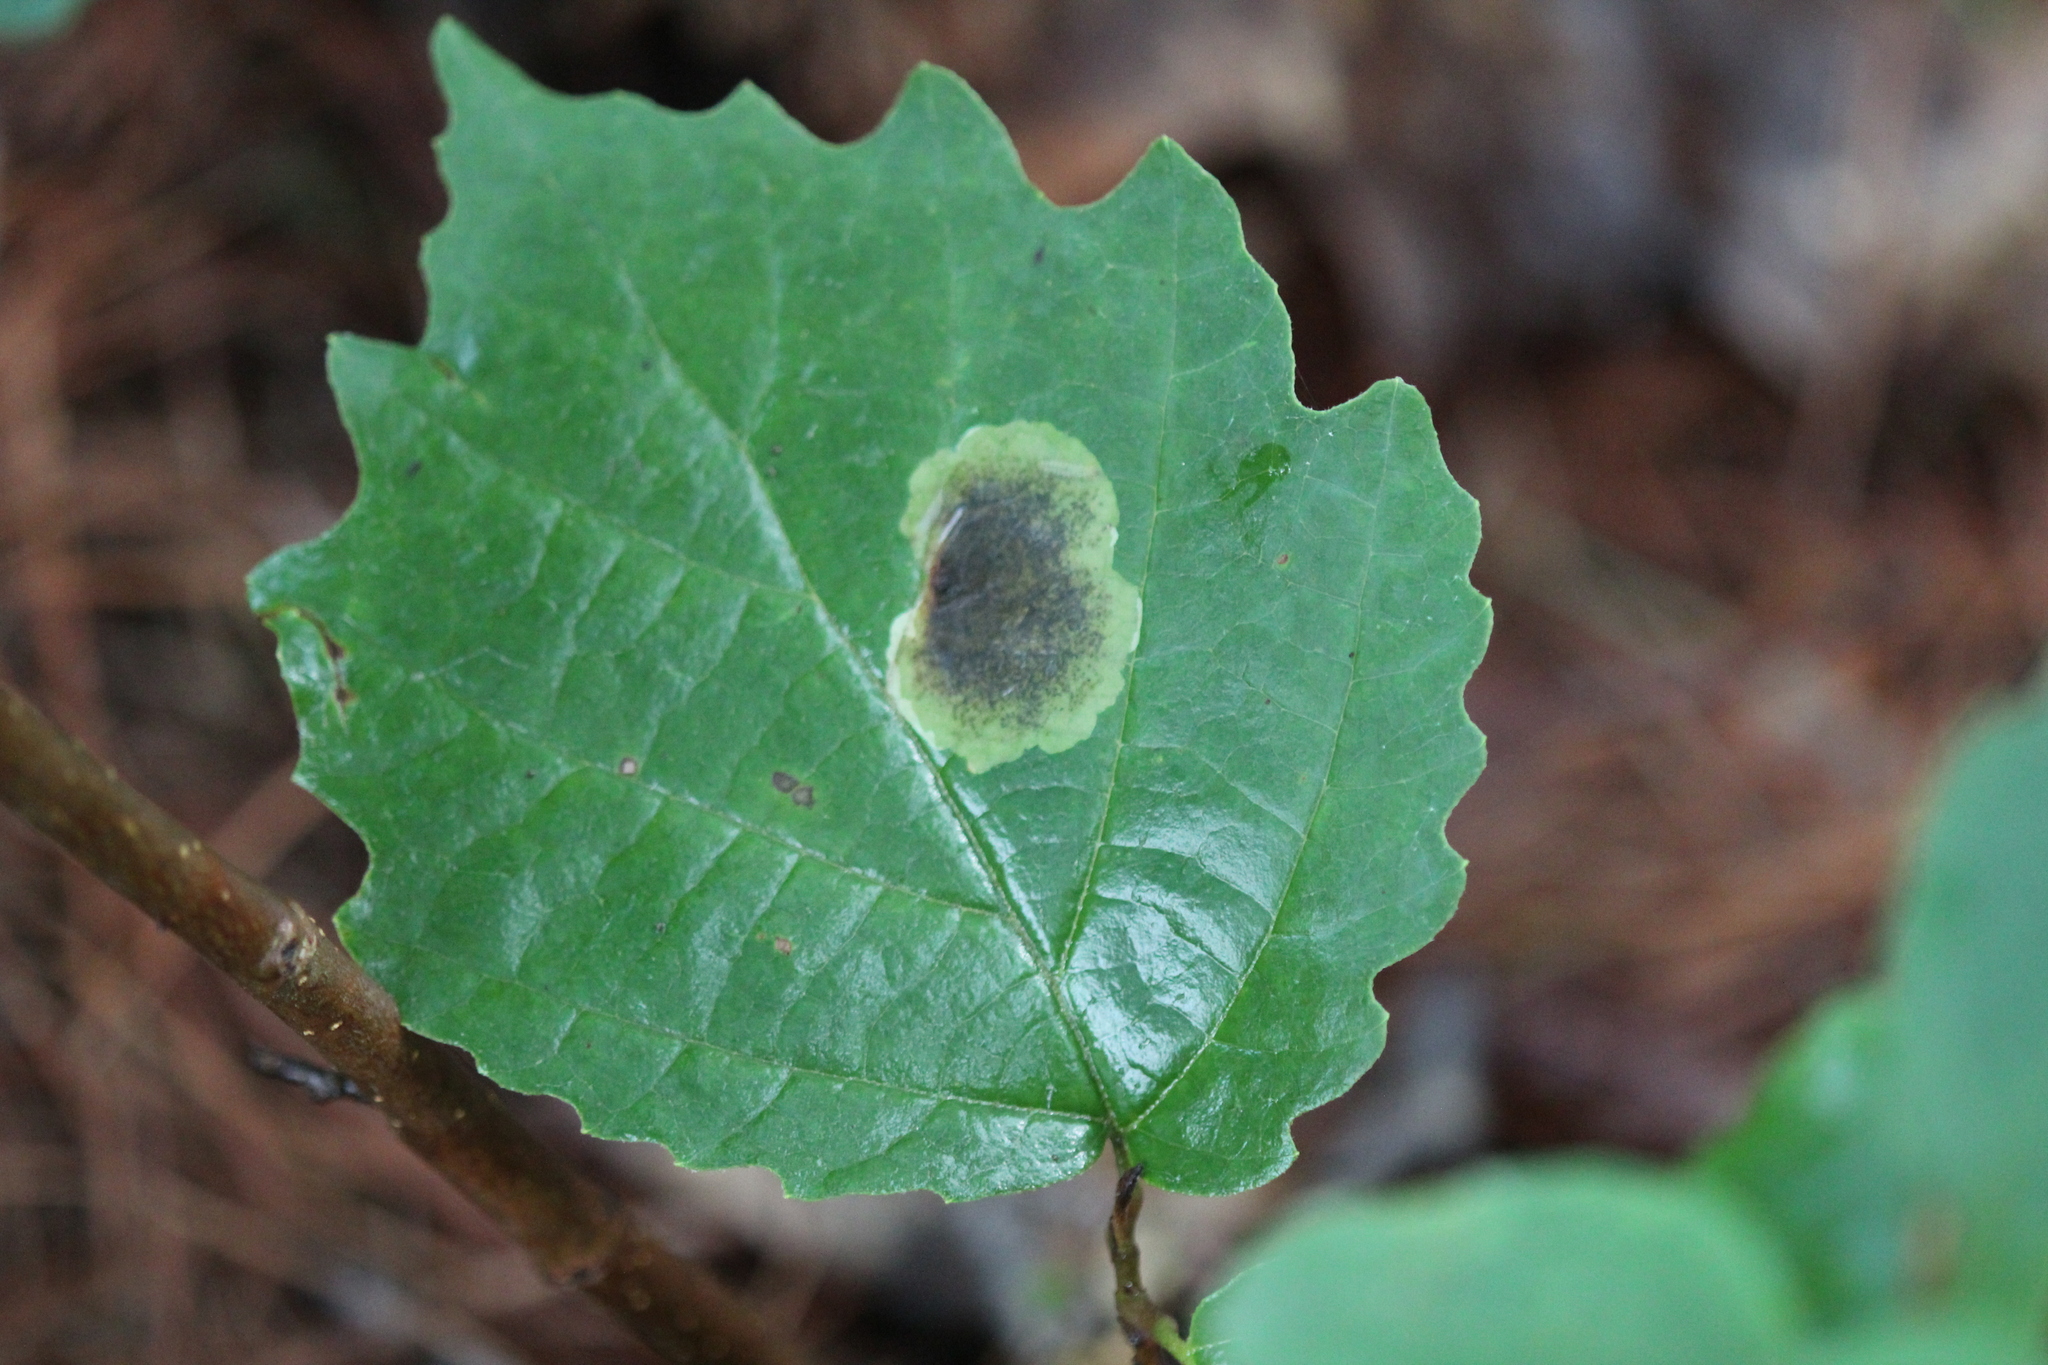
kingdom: Plantae
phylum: Tracheophyta
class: Magnoliopsida
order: Saxifragales
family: Hamamelidaceae
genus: Hamamelis
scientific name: Hamamelis virginiana
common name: Witch-hazel
